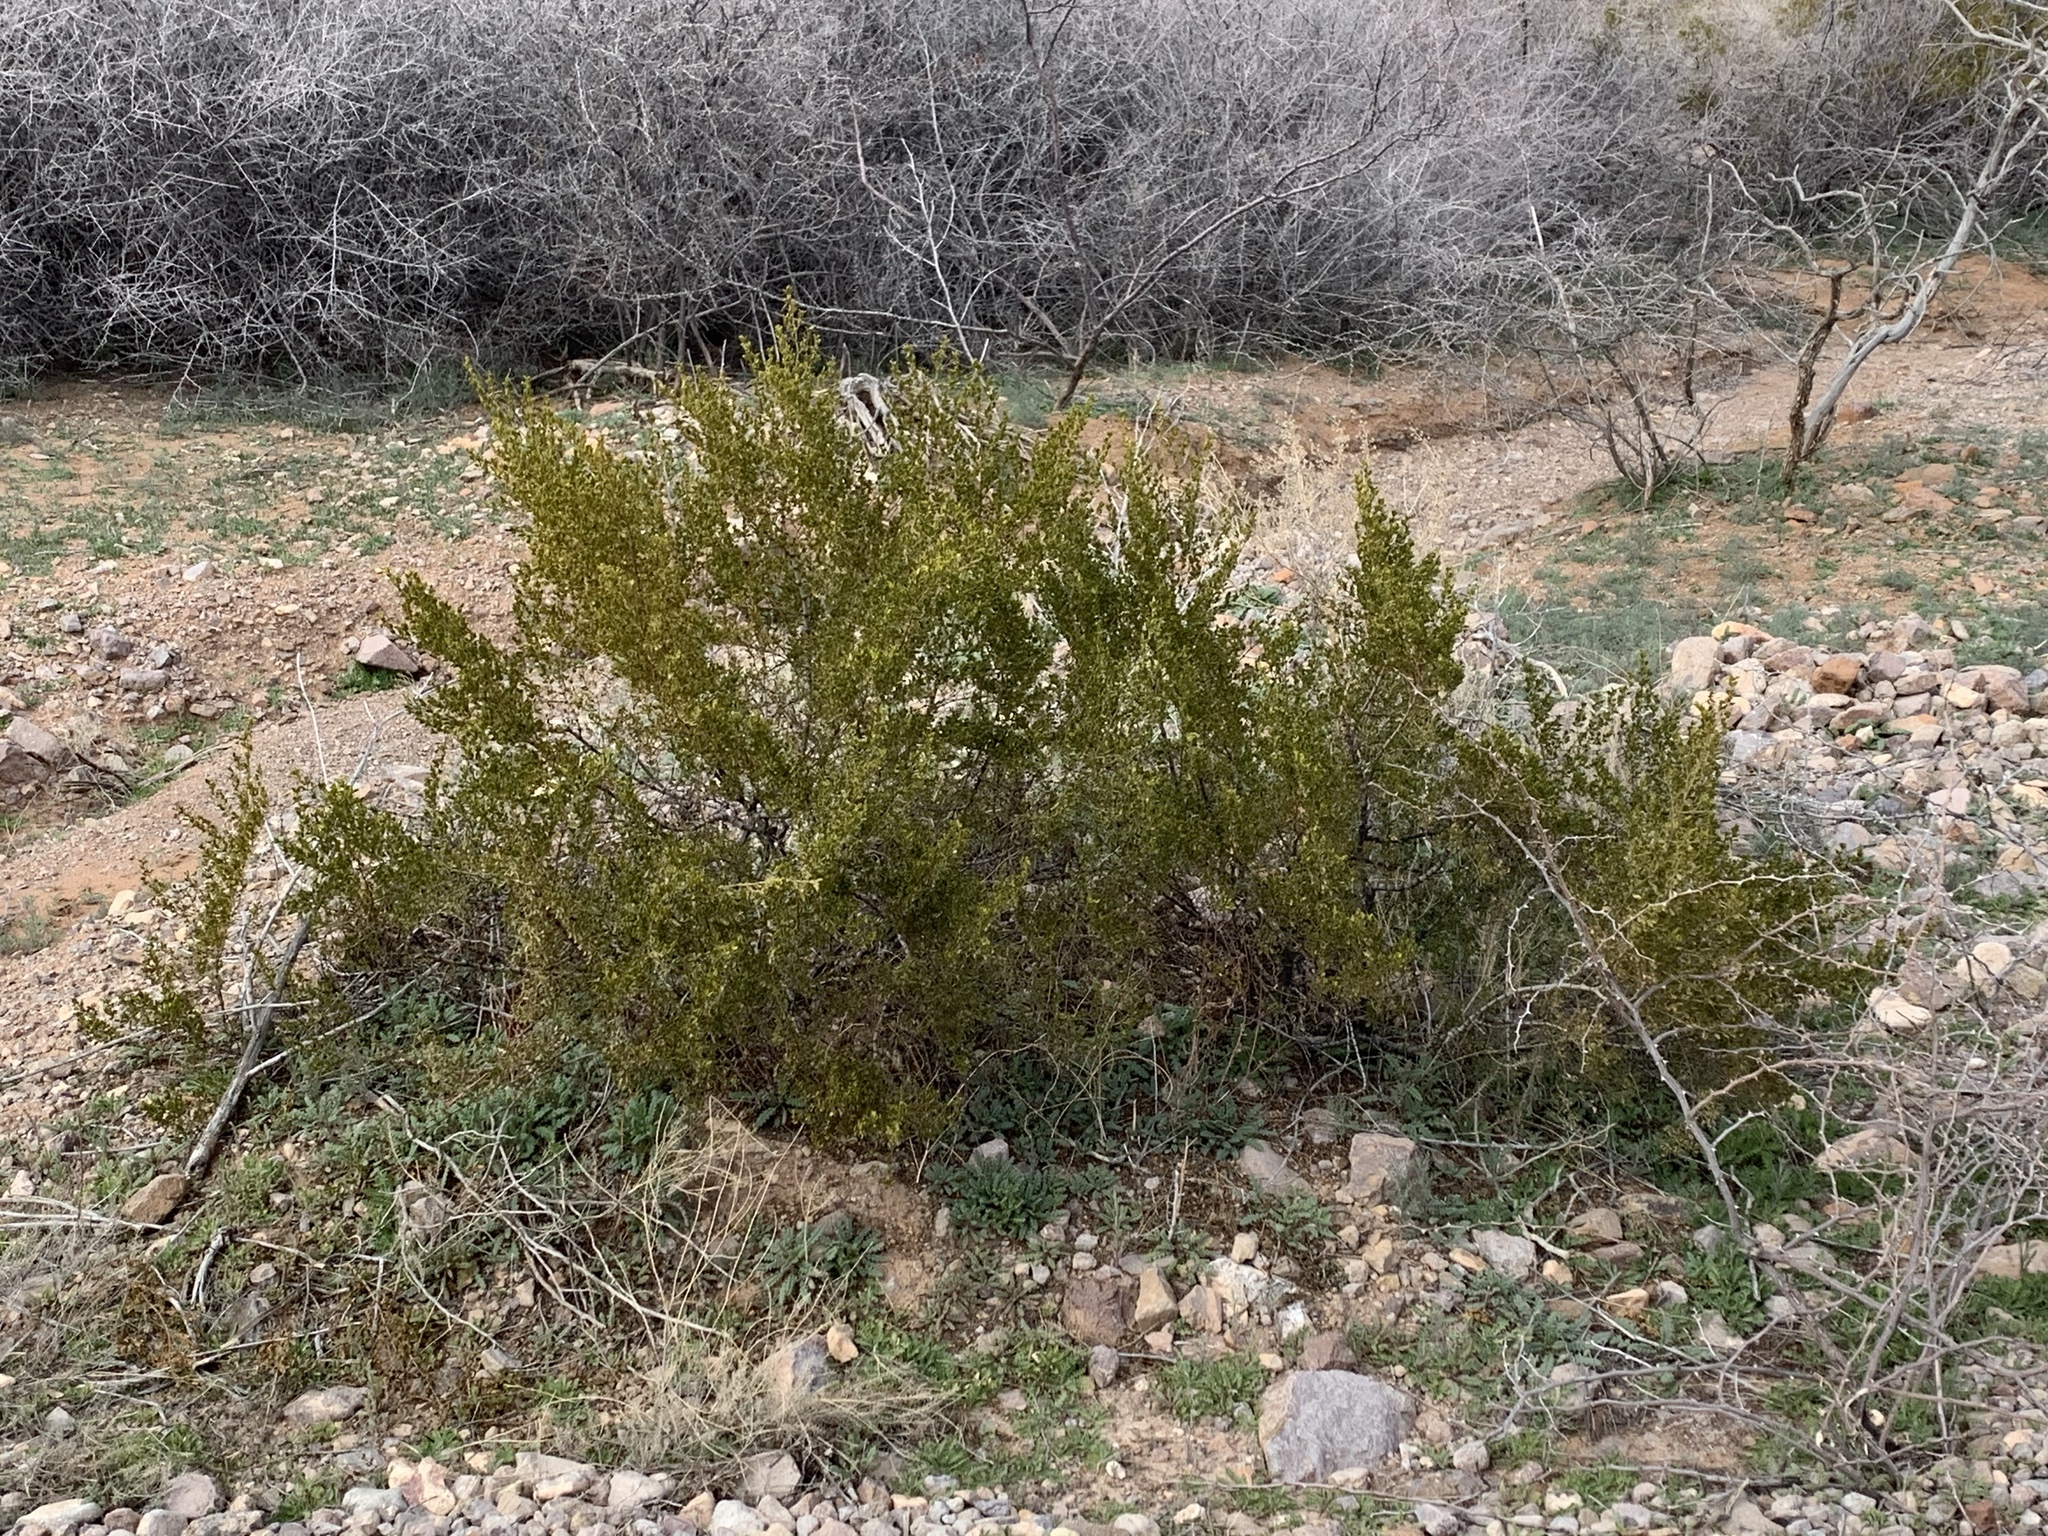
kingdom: Plantae
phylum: Tracheophyta
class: Magnoliopsida
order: Zygophyllales
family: Zygophyllaceae
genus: Larrea
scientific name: Larrea tridentata
